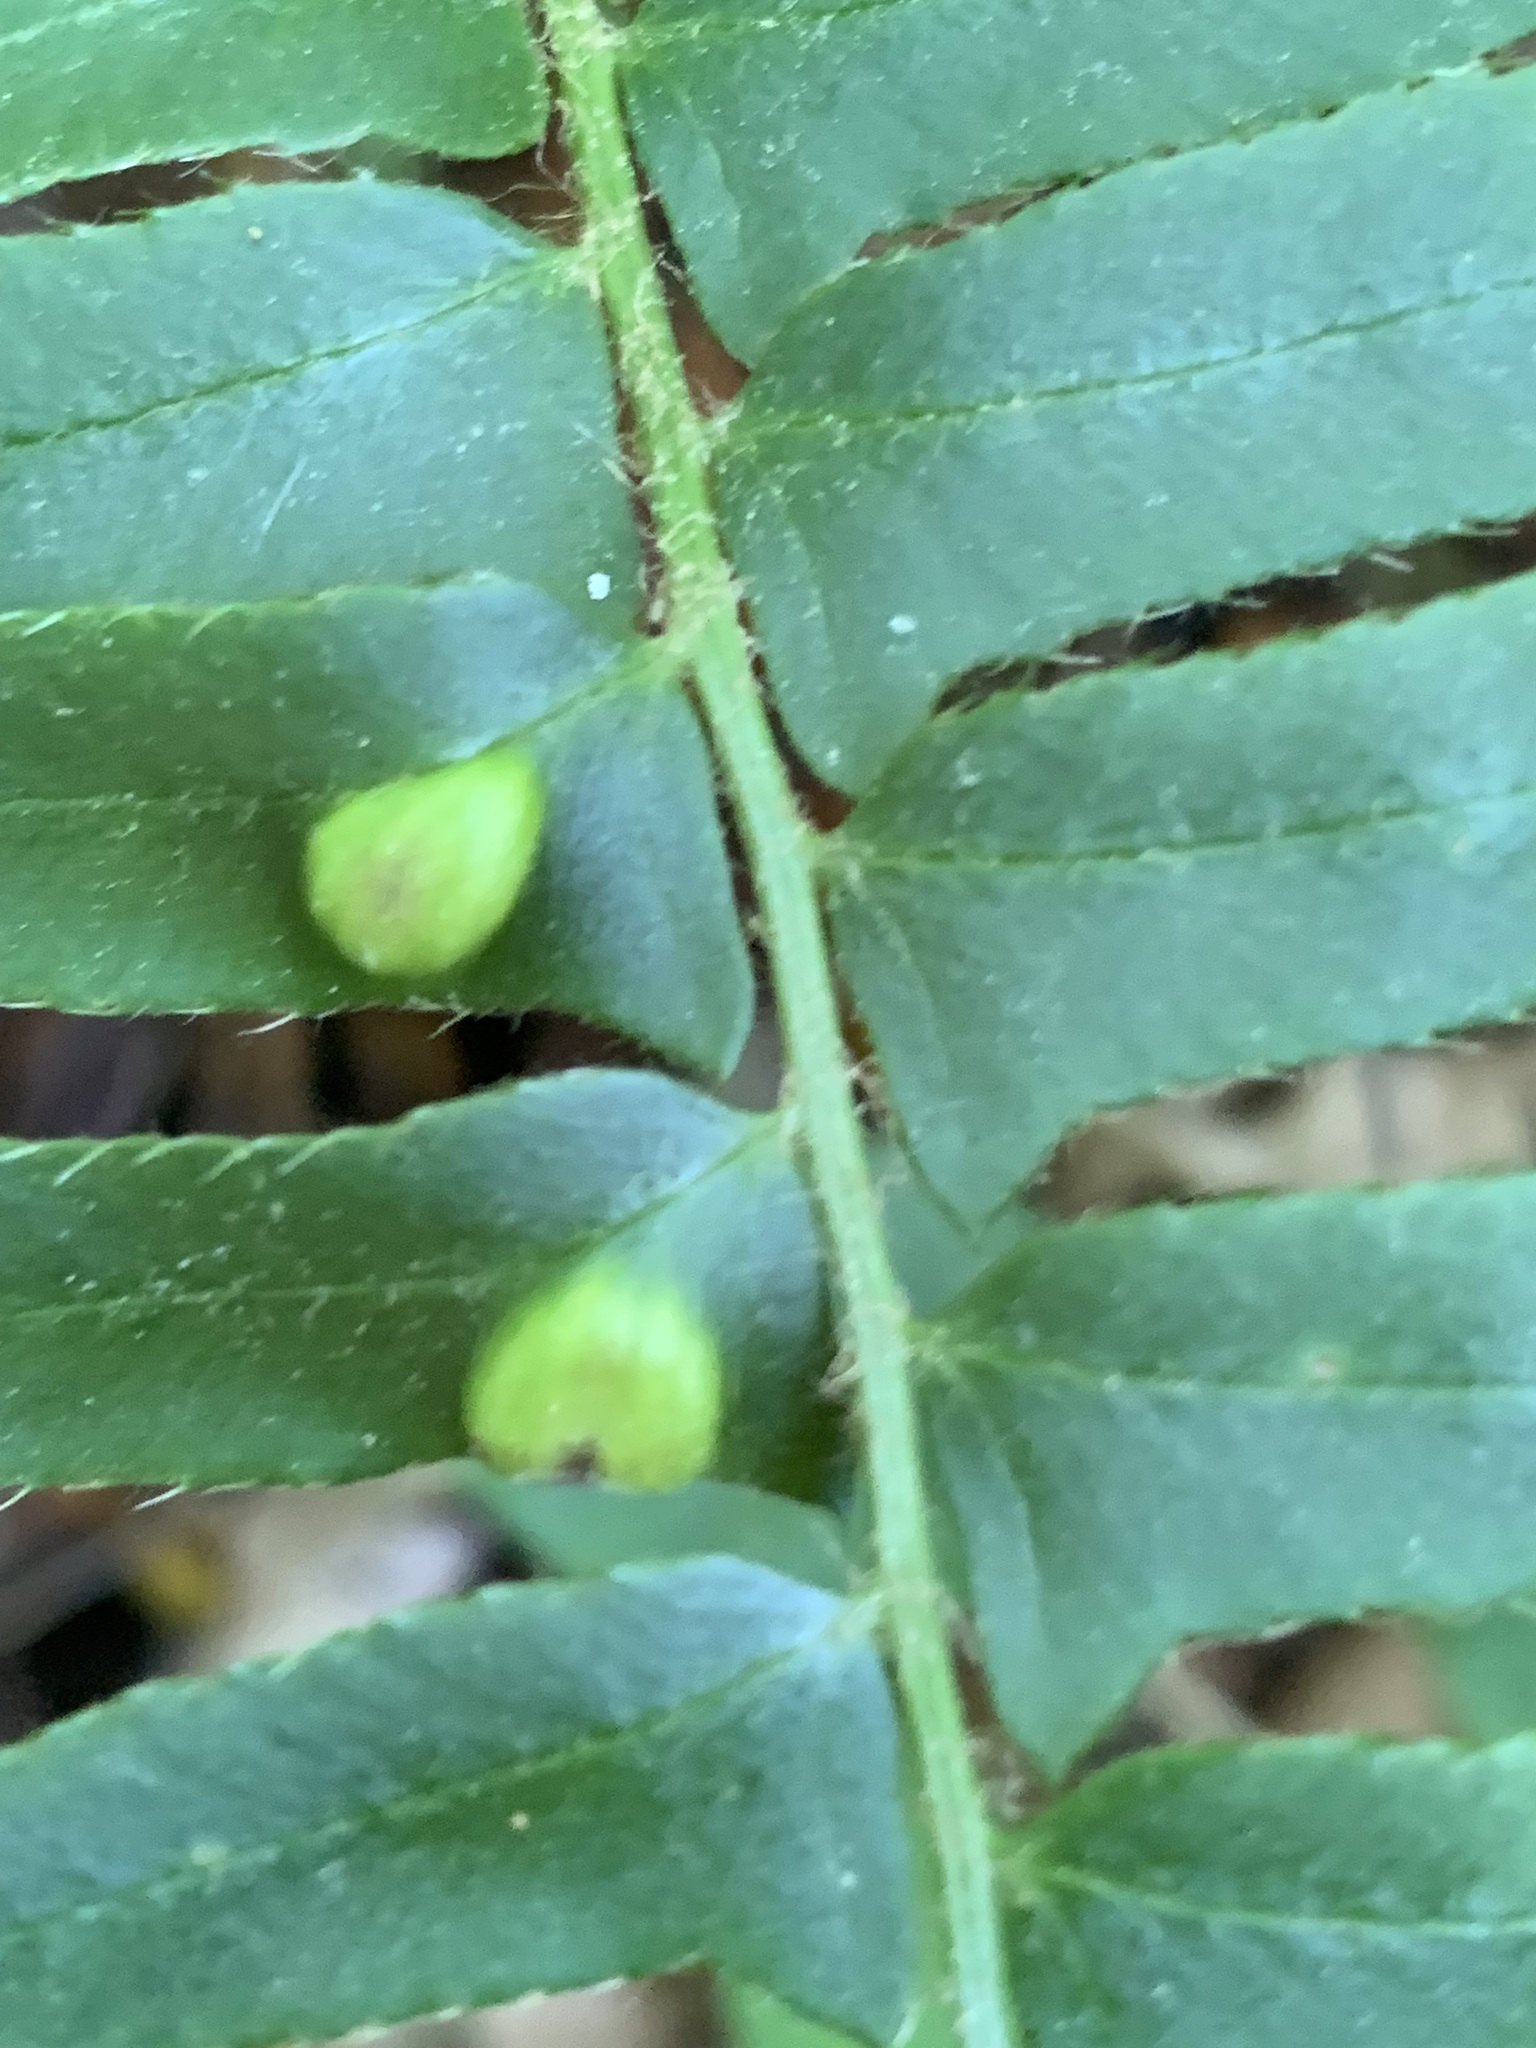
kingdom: Fungi
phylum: Ascomycota
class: Taphrinomycetes
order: Taphrinales
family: Taphrinaceae
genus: Taphrina
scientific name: Taphrina polystichi
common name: Christmas fern leaf curl
